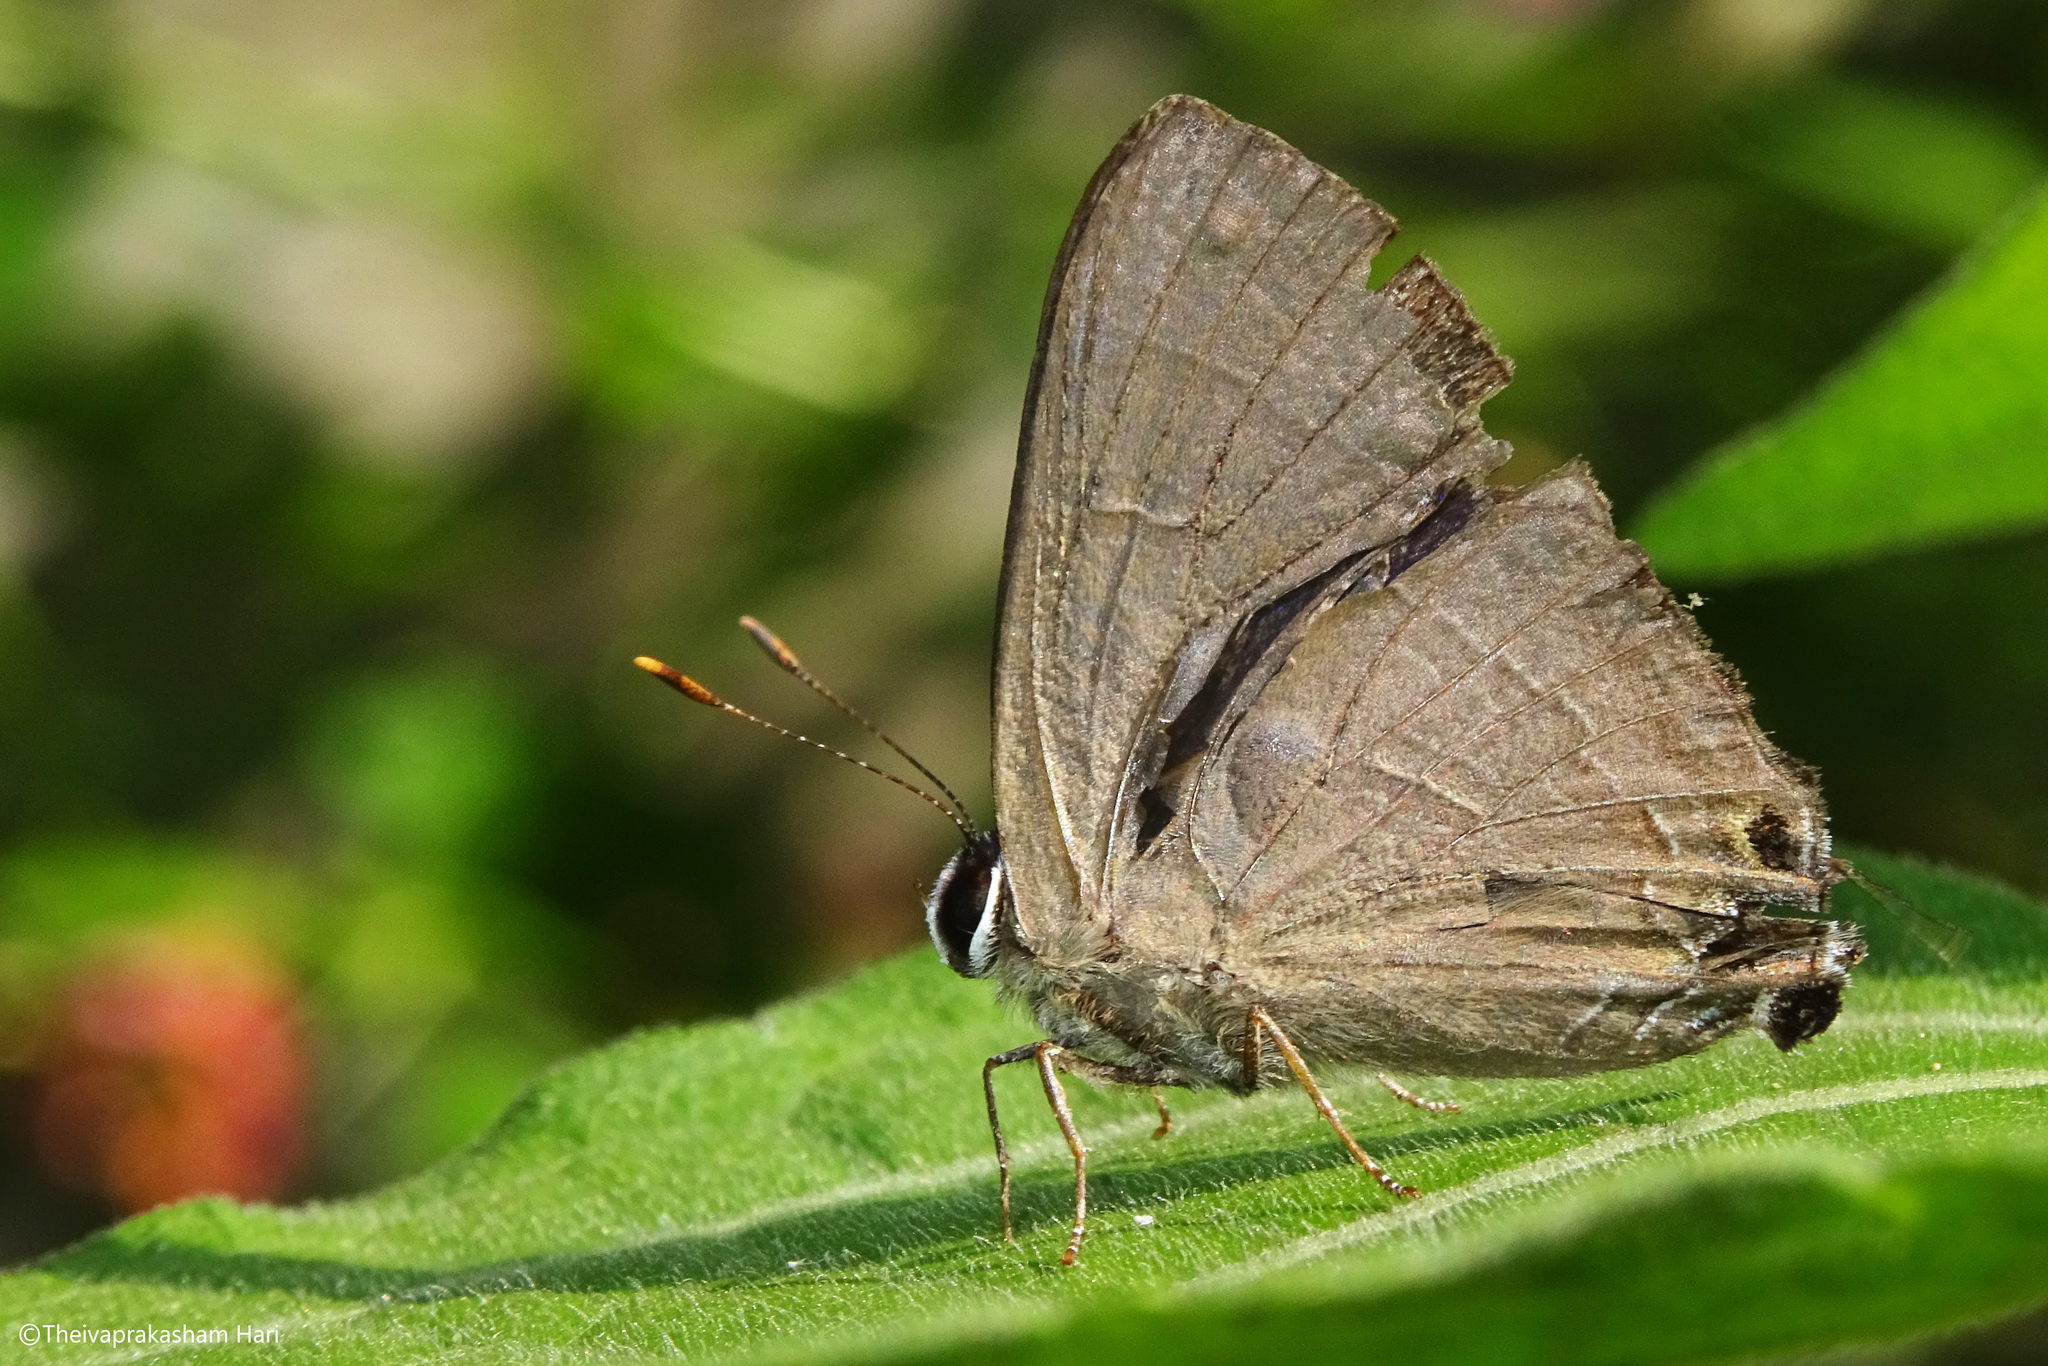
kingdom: Animalia
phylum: Arthropoda
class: Insecta
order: Lepidoptera
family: Lycaenidae
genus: Deudorix
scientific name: Deudorix epijarbas
